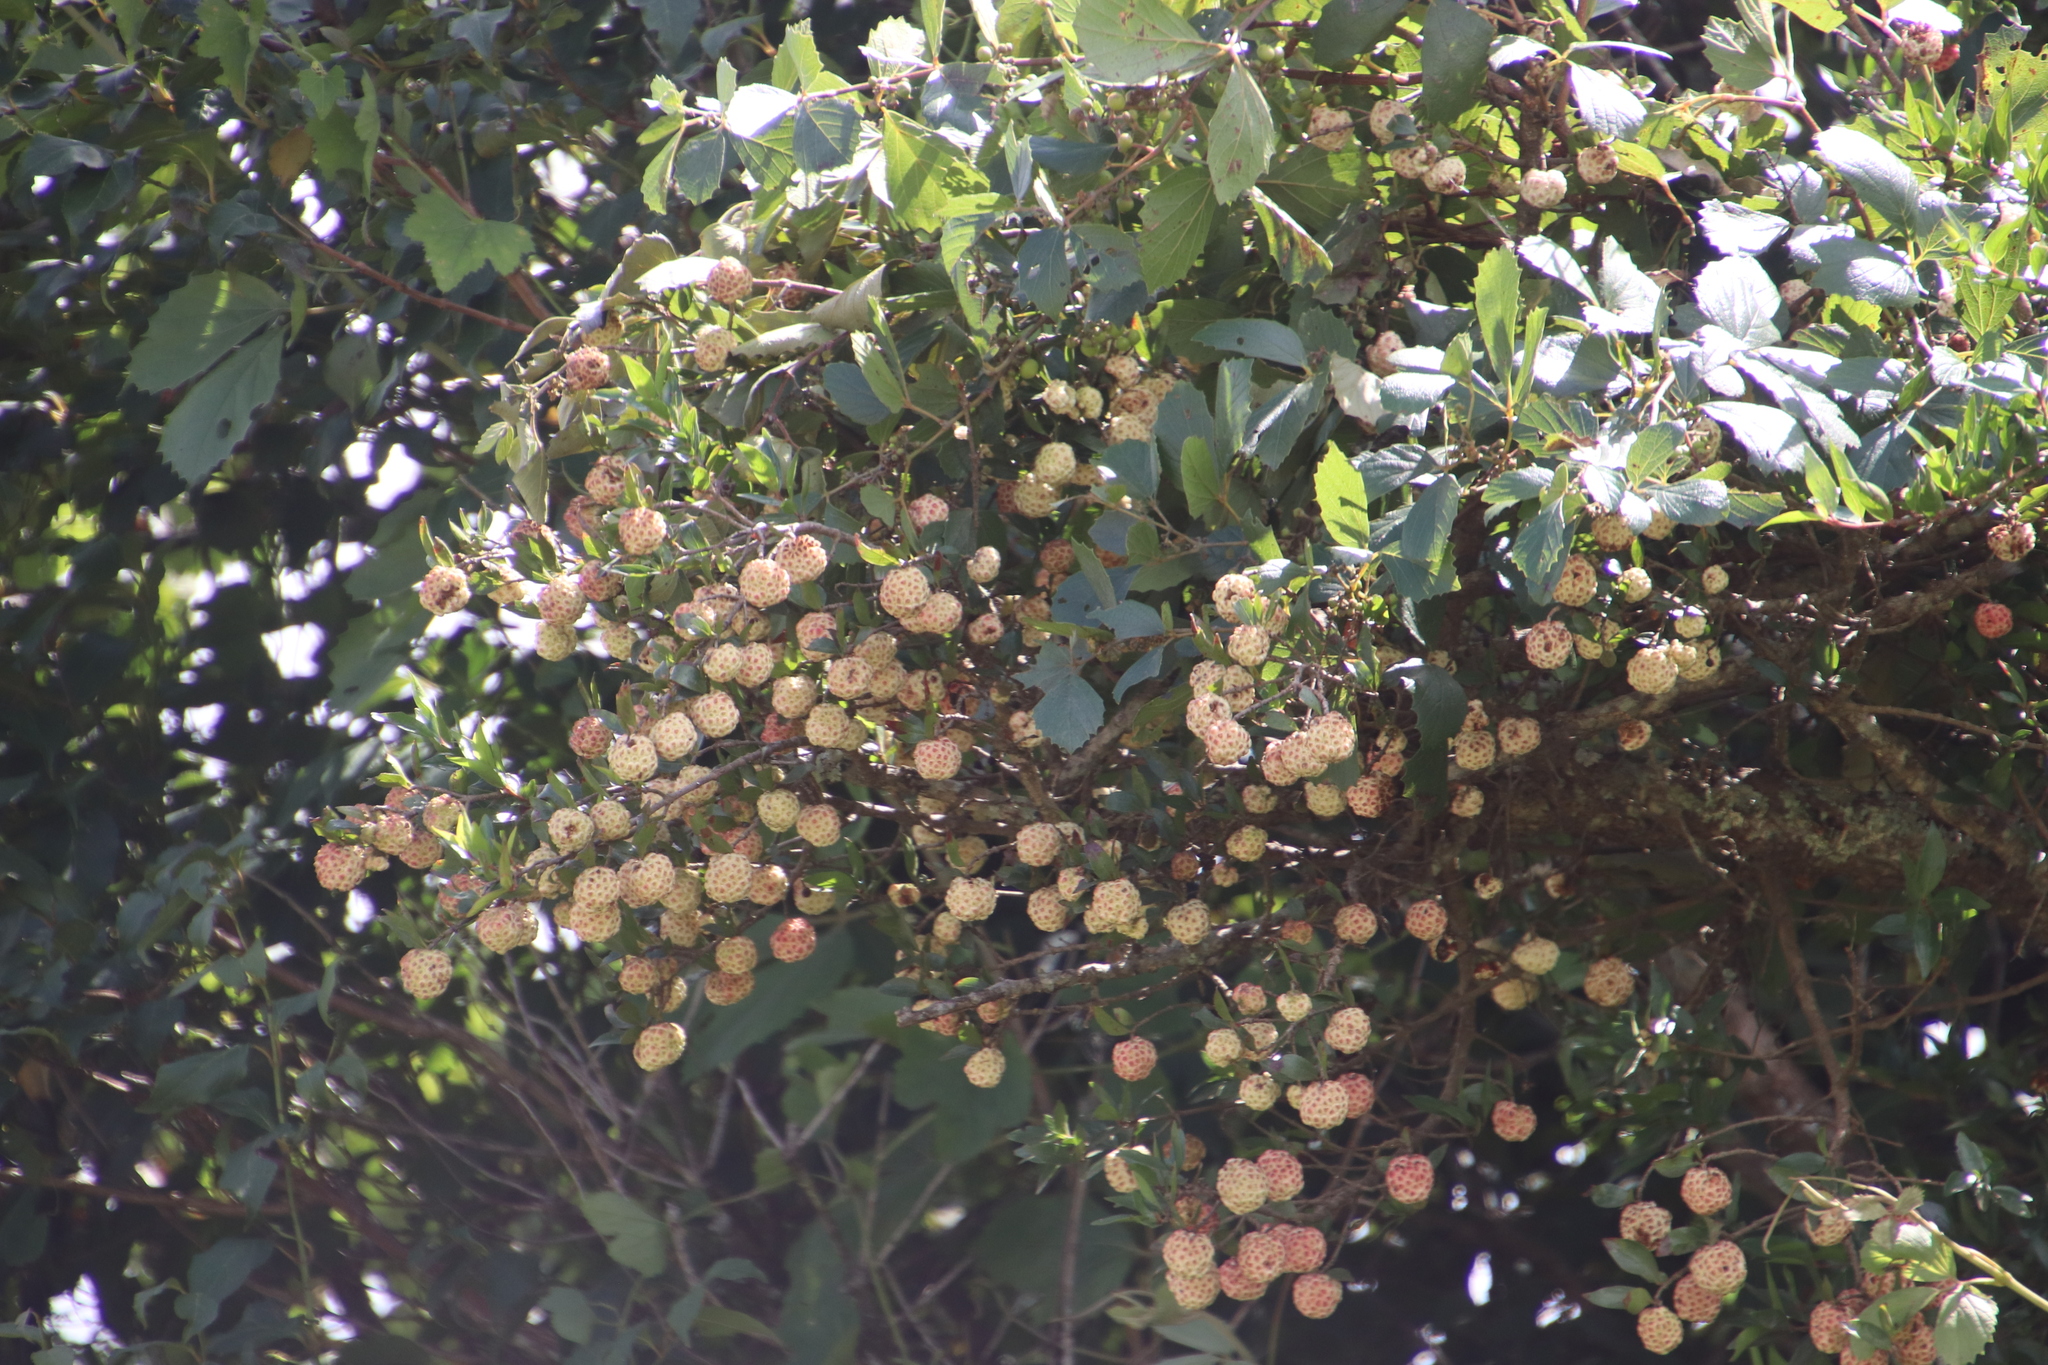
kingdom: Plantae
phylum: Tracheophyta
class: Magnoliopsida
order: Gentianales
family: Rubiaceae
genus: Cephalanthus
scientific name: Cephalanthus natalensis
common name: Strawberry bush
